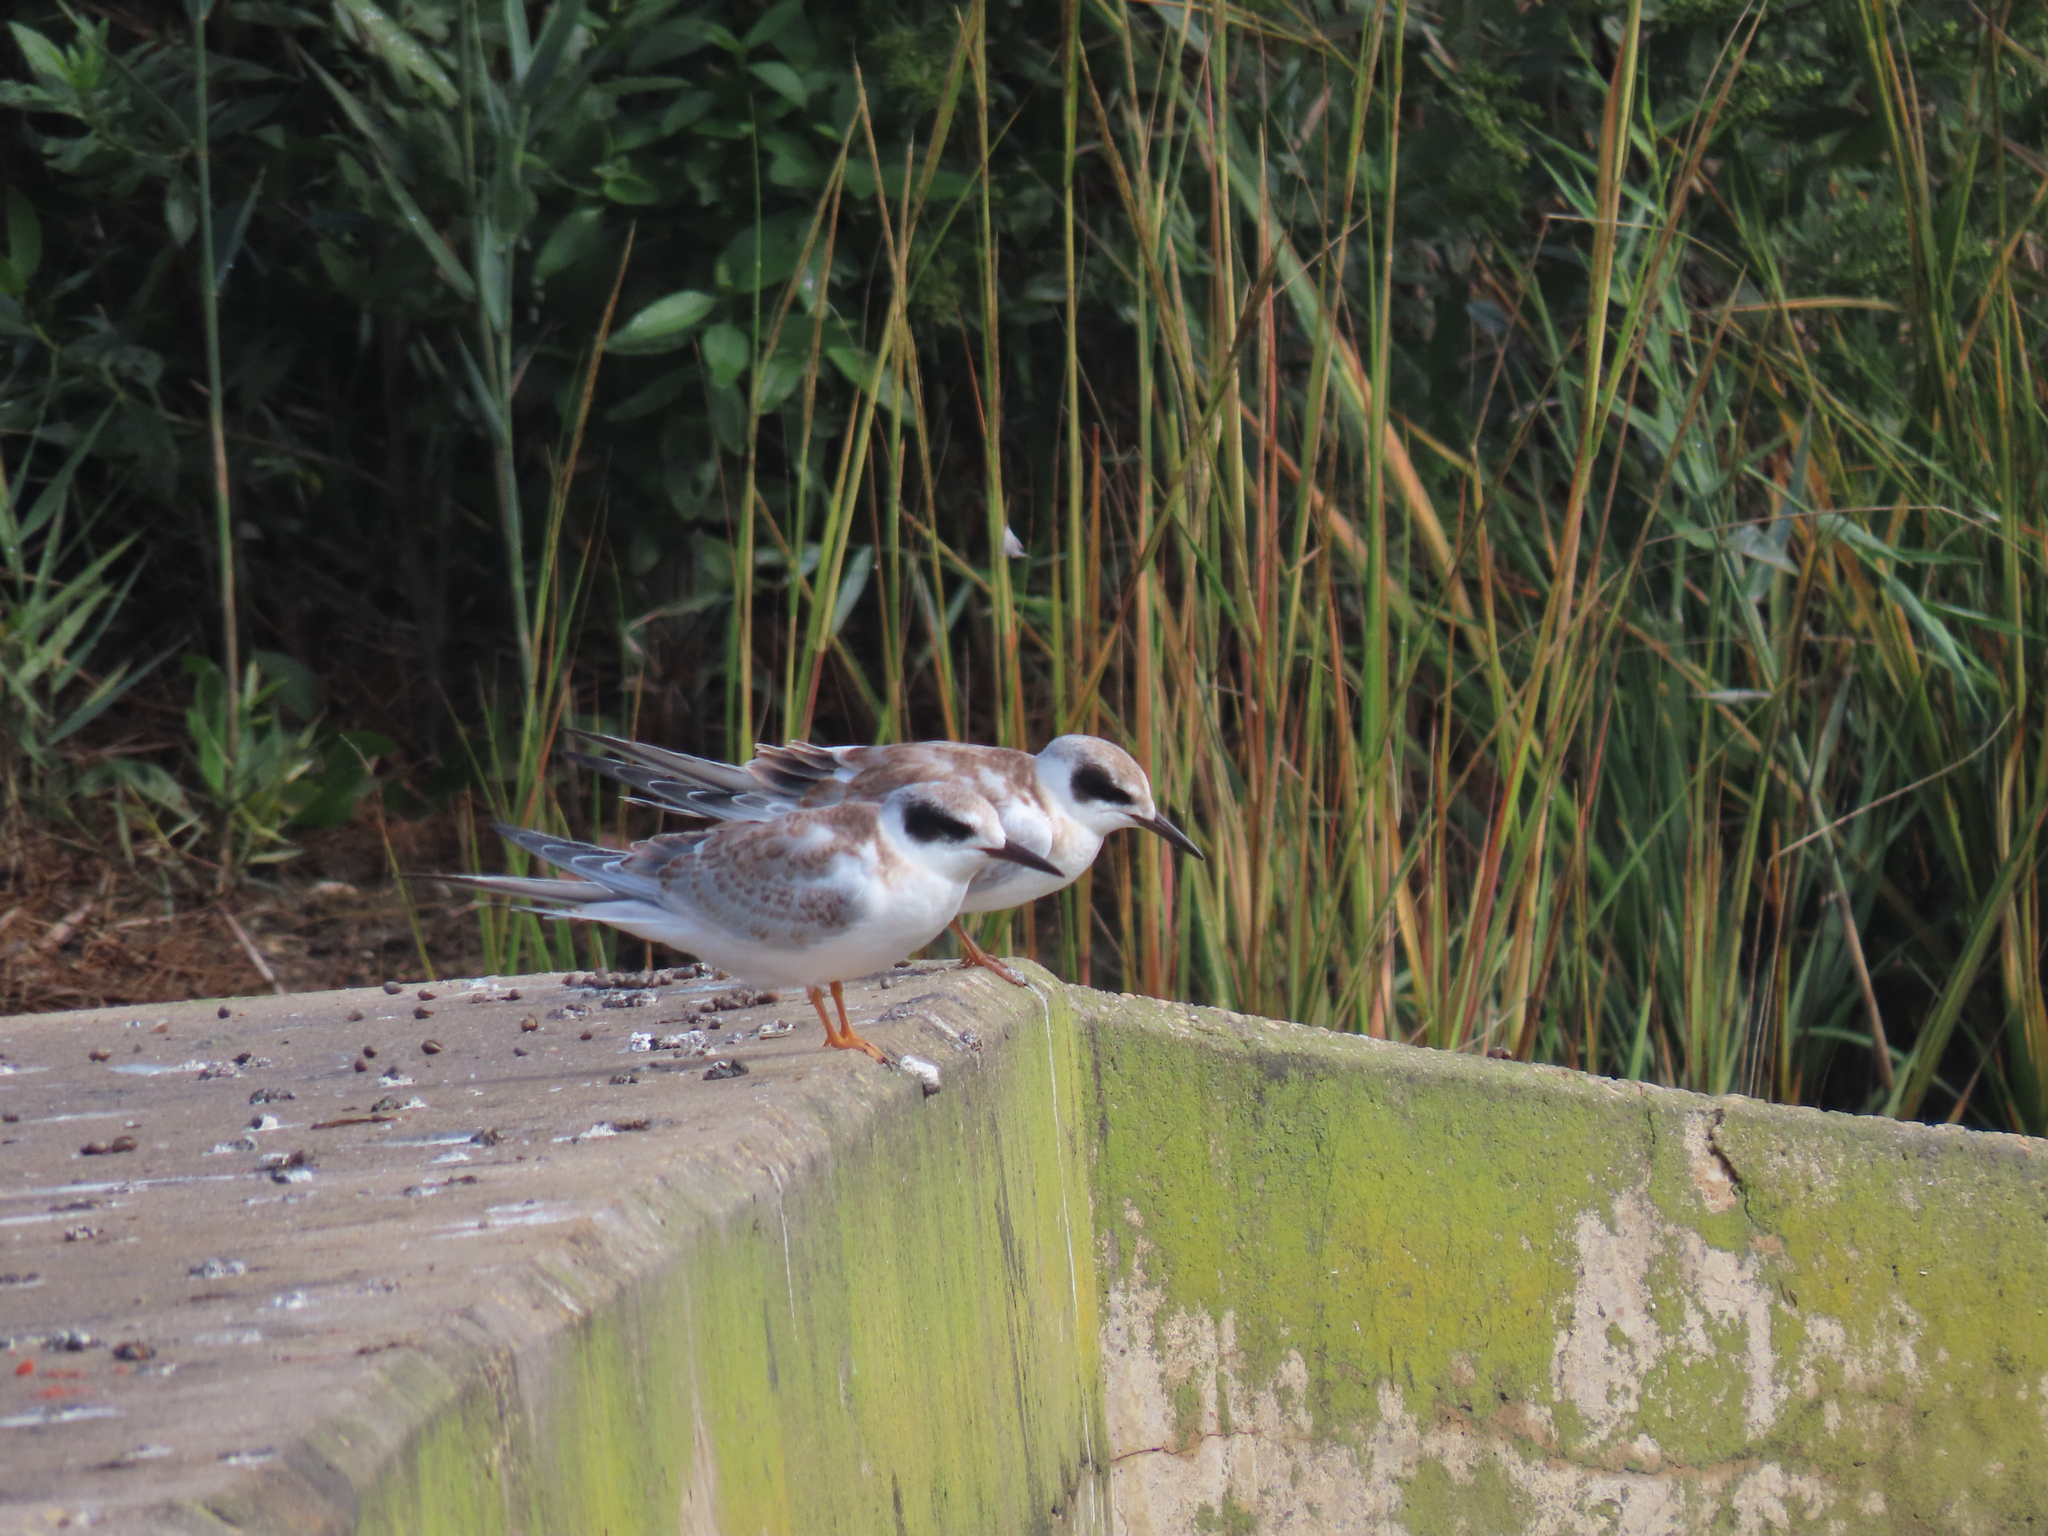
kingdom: Animalia
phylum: Chordata
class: Aves
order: Charadriiformes
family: Laridae
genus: Sterna
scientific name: Sterna forsteri
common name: Forster's tern
